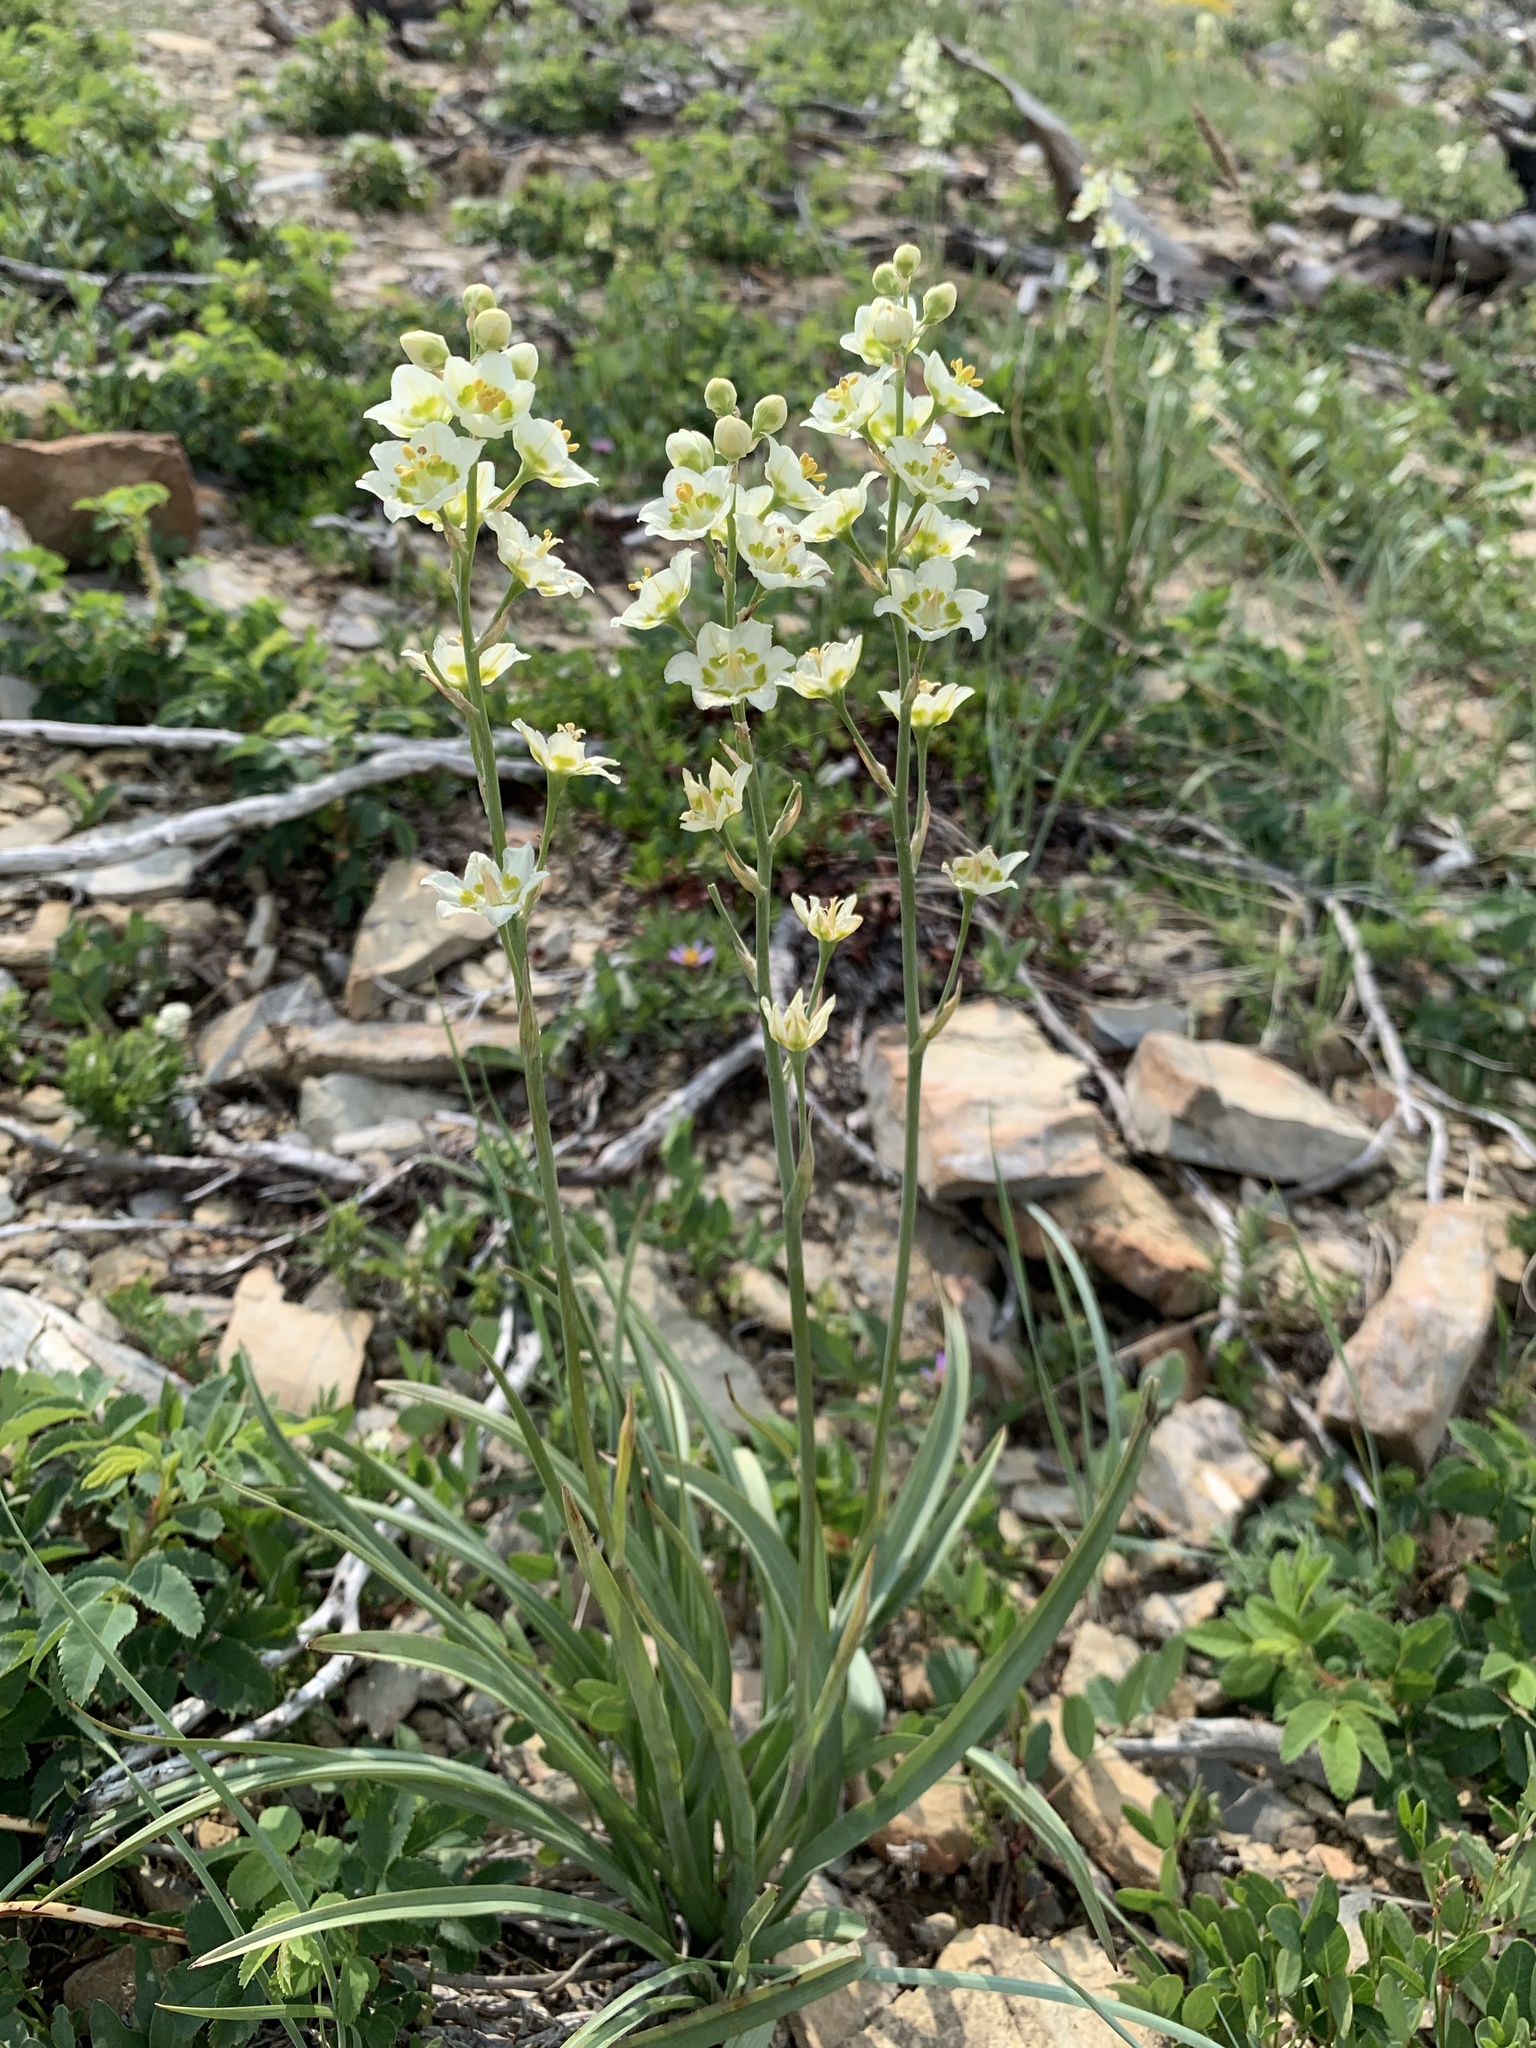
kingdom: Plantae
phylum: Tracheophyta
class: Liliopsida
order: Liliales
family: Melanthiaceae
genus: Anticlea
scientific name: Anticlea elegans
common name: Mountain death camas
